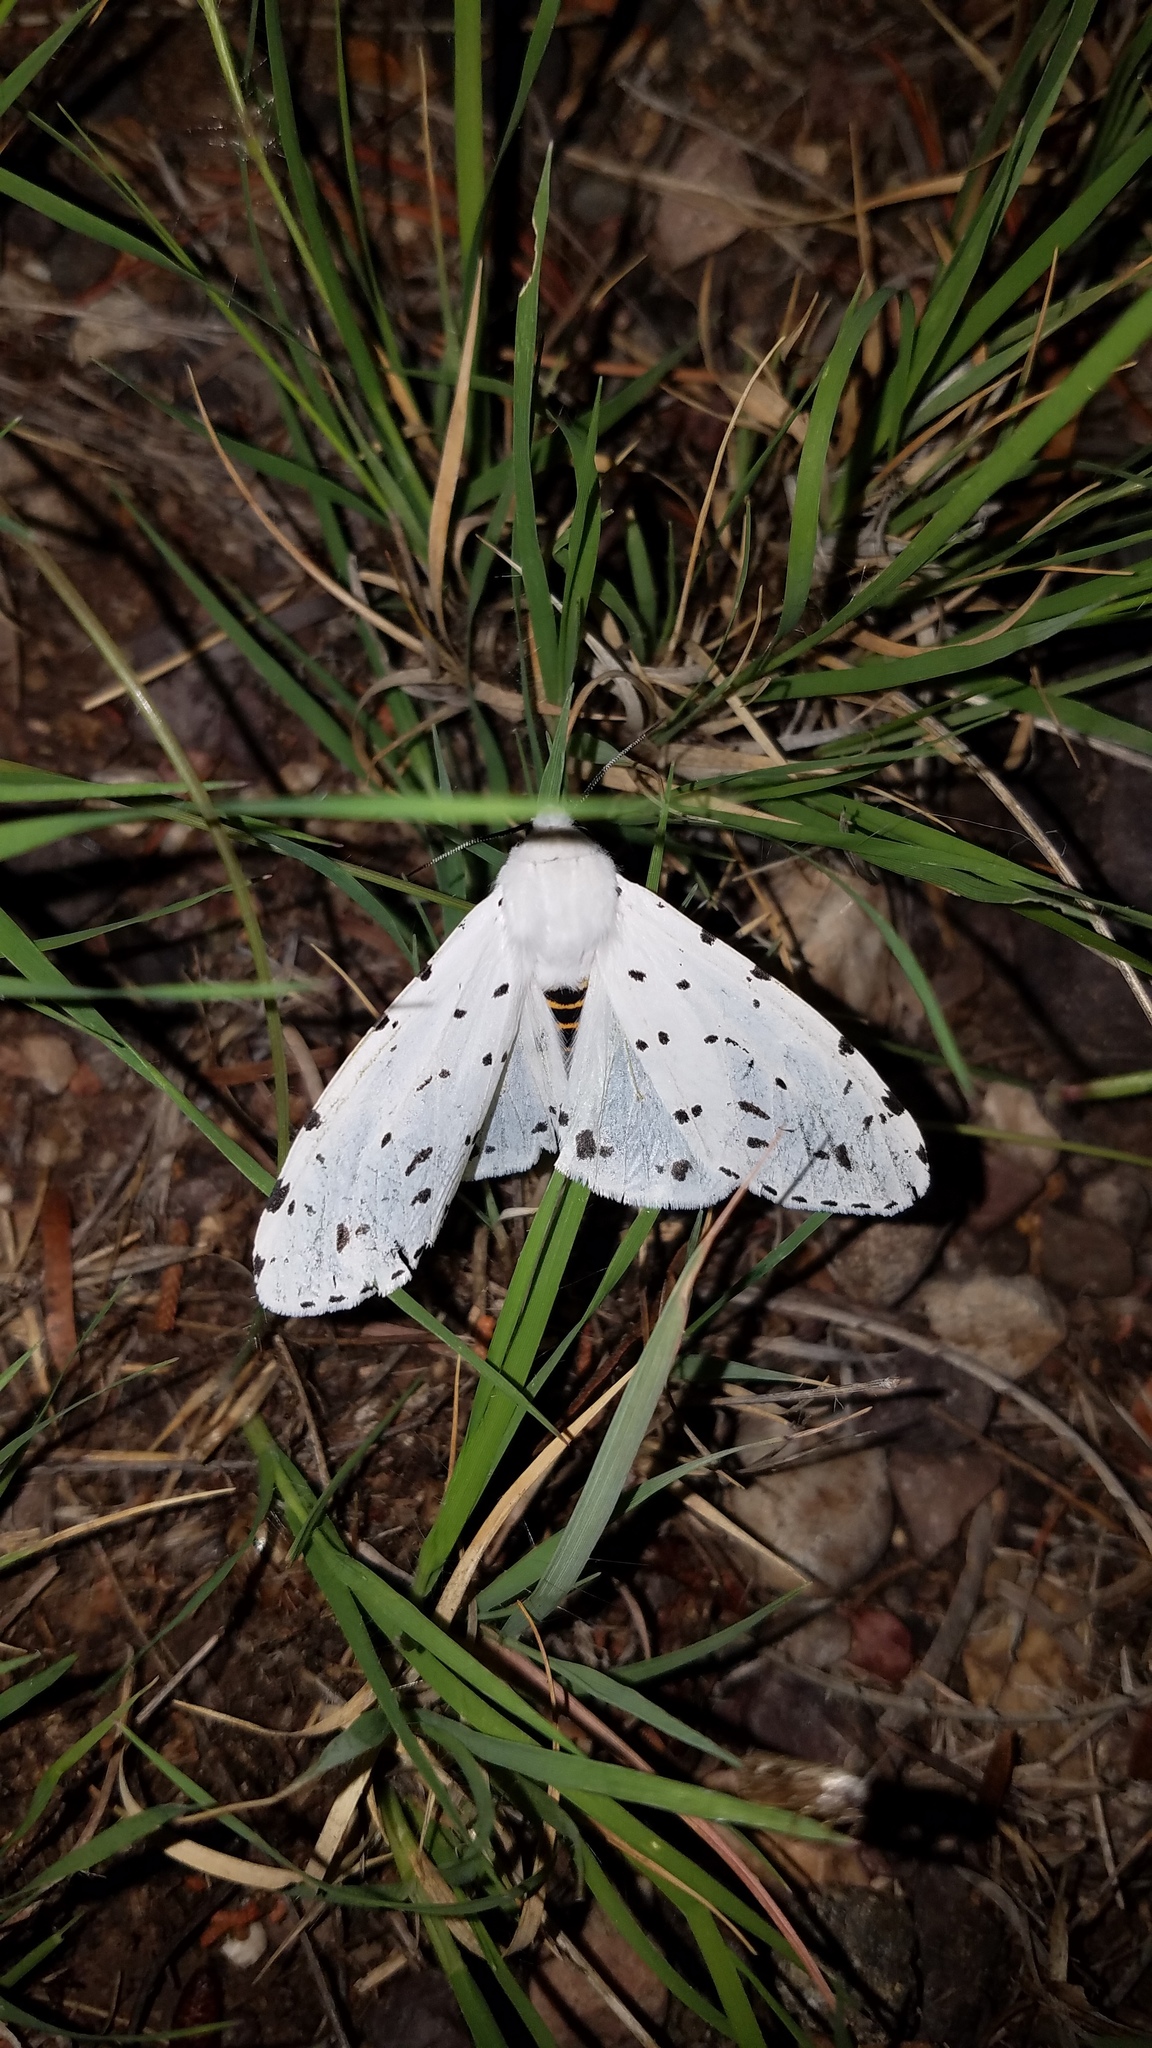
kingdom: Animalia
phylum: Arthropoda
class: Insecta
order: Lepidoptera
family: Erebidae
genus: Estigmene
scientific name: Estigmene albida
